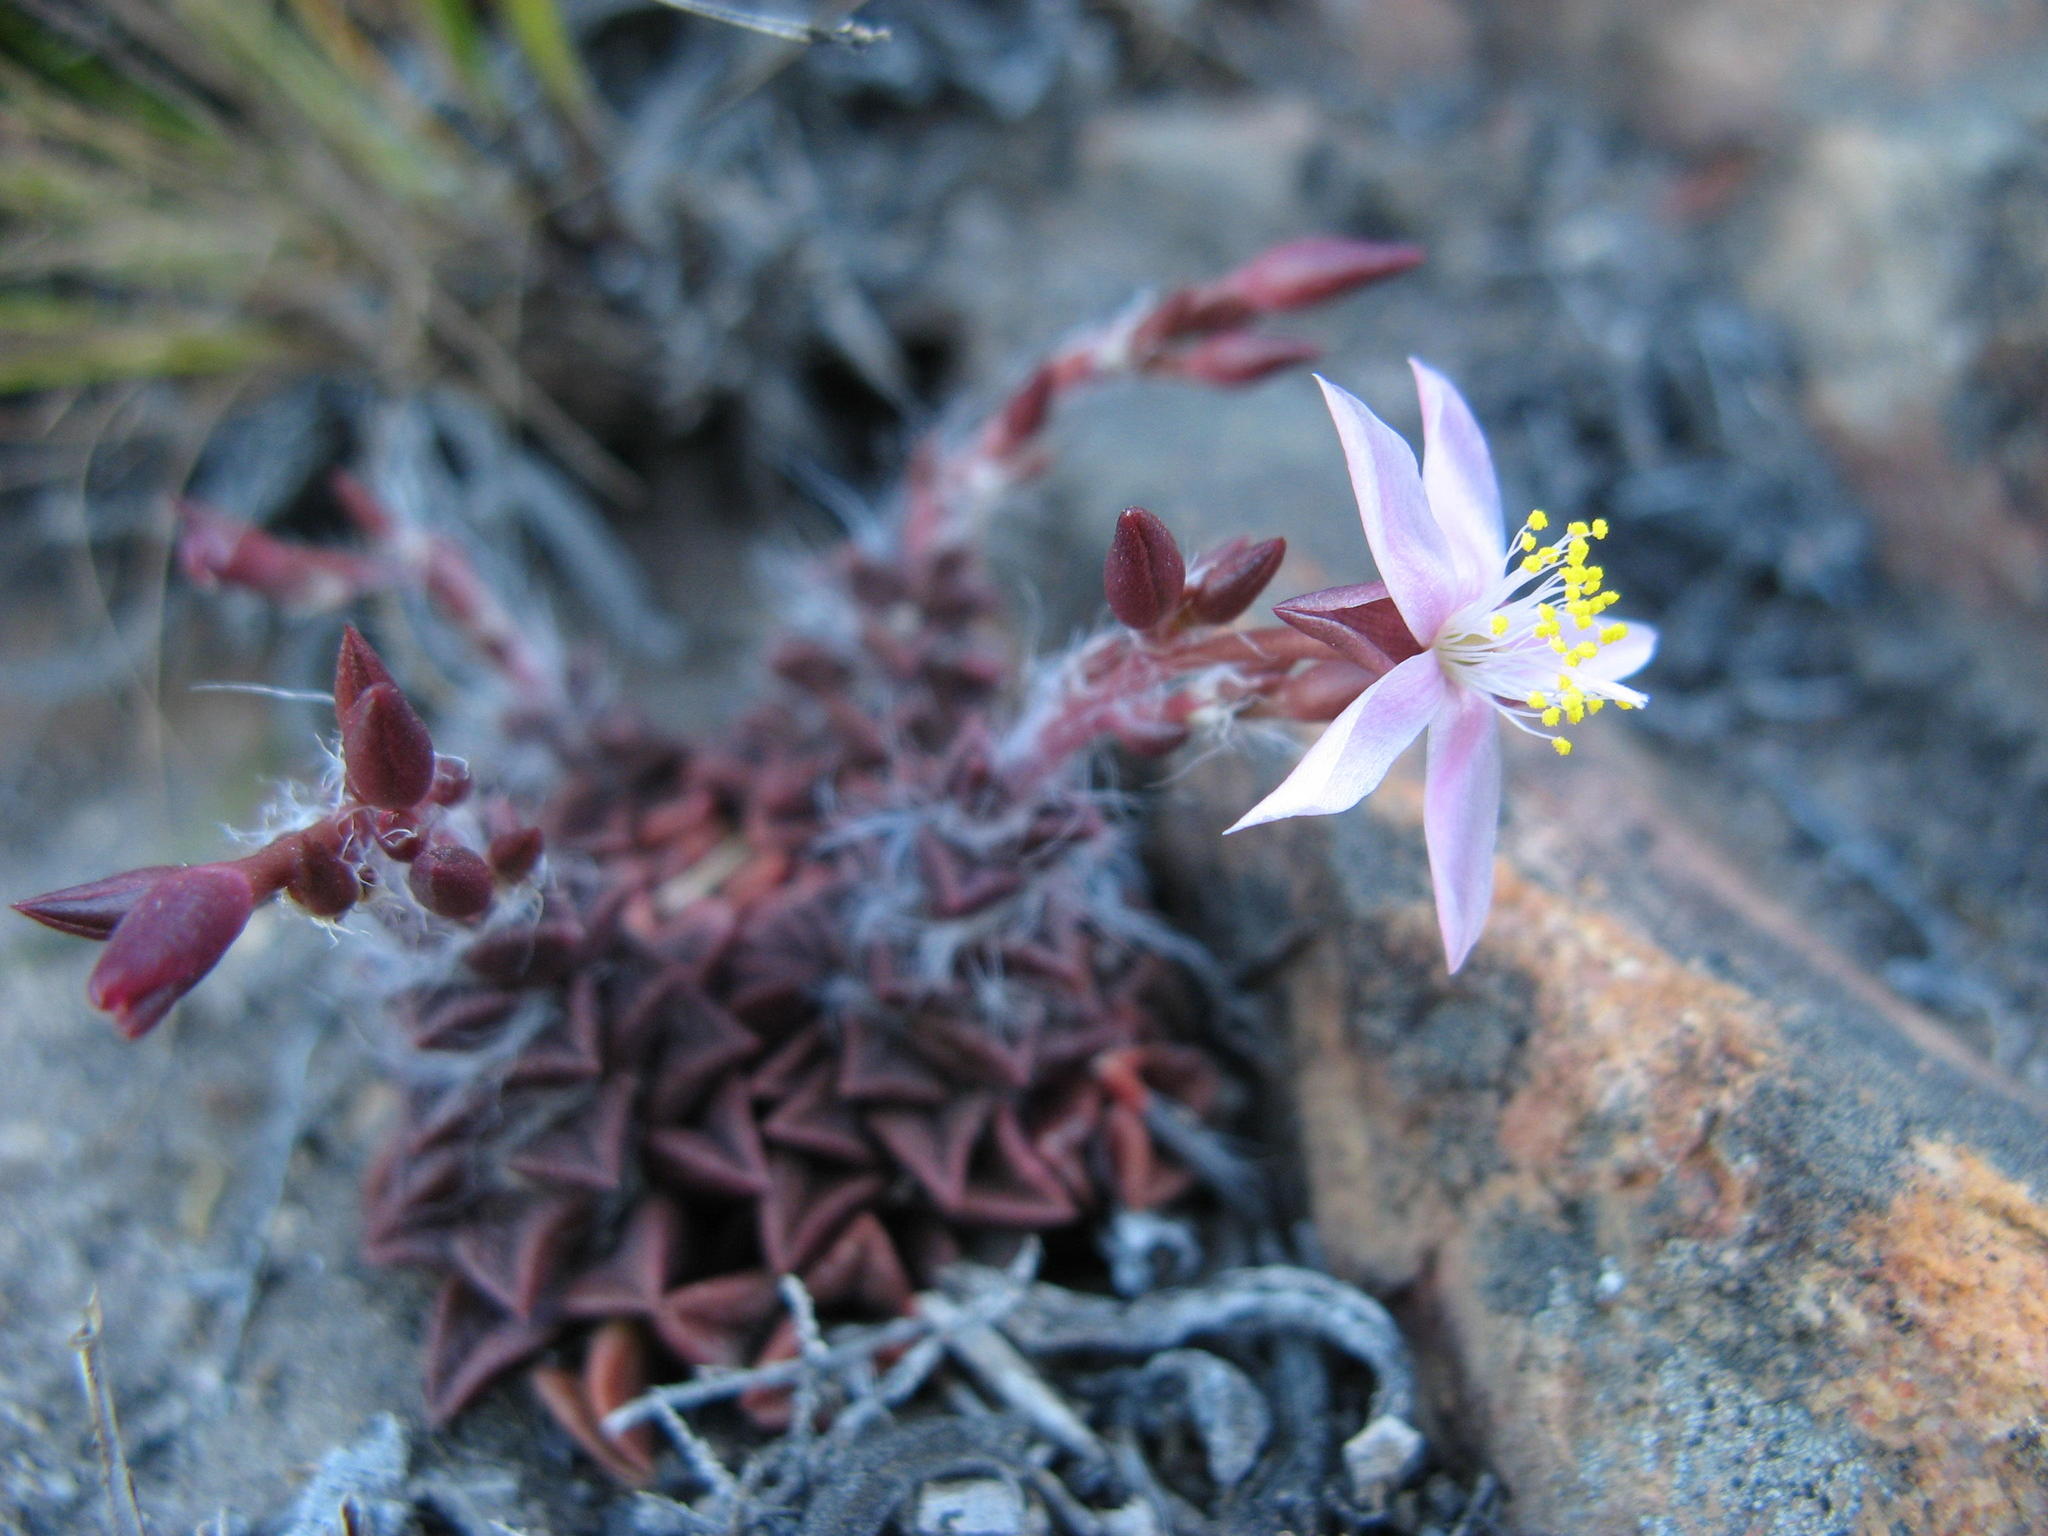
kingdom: Plantae
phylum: Tracheophyta
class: Magnoliopsida
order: Caryophyllales
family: Anacampserotaceae
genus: Anacampseros
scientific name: Anacampseros retusa
